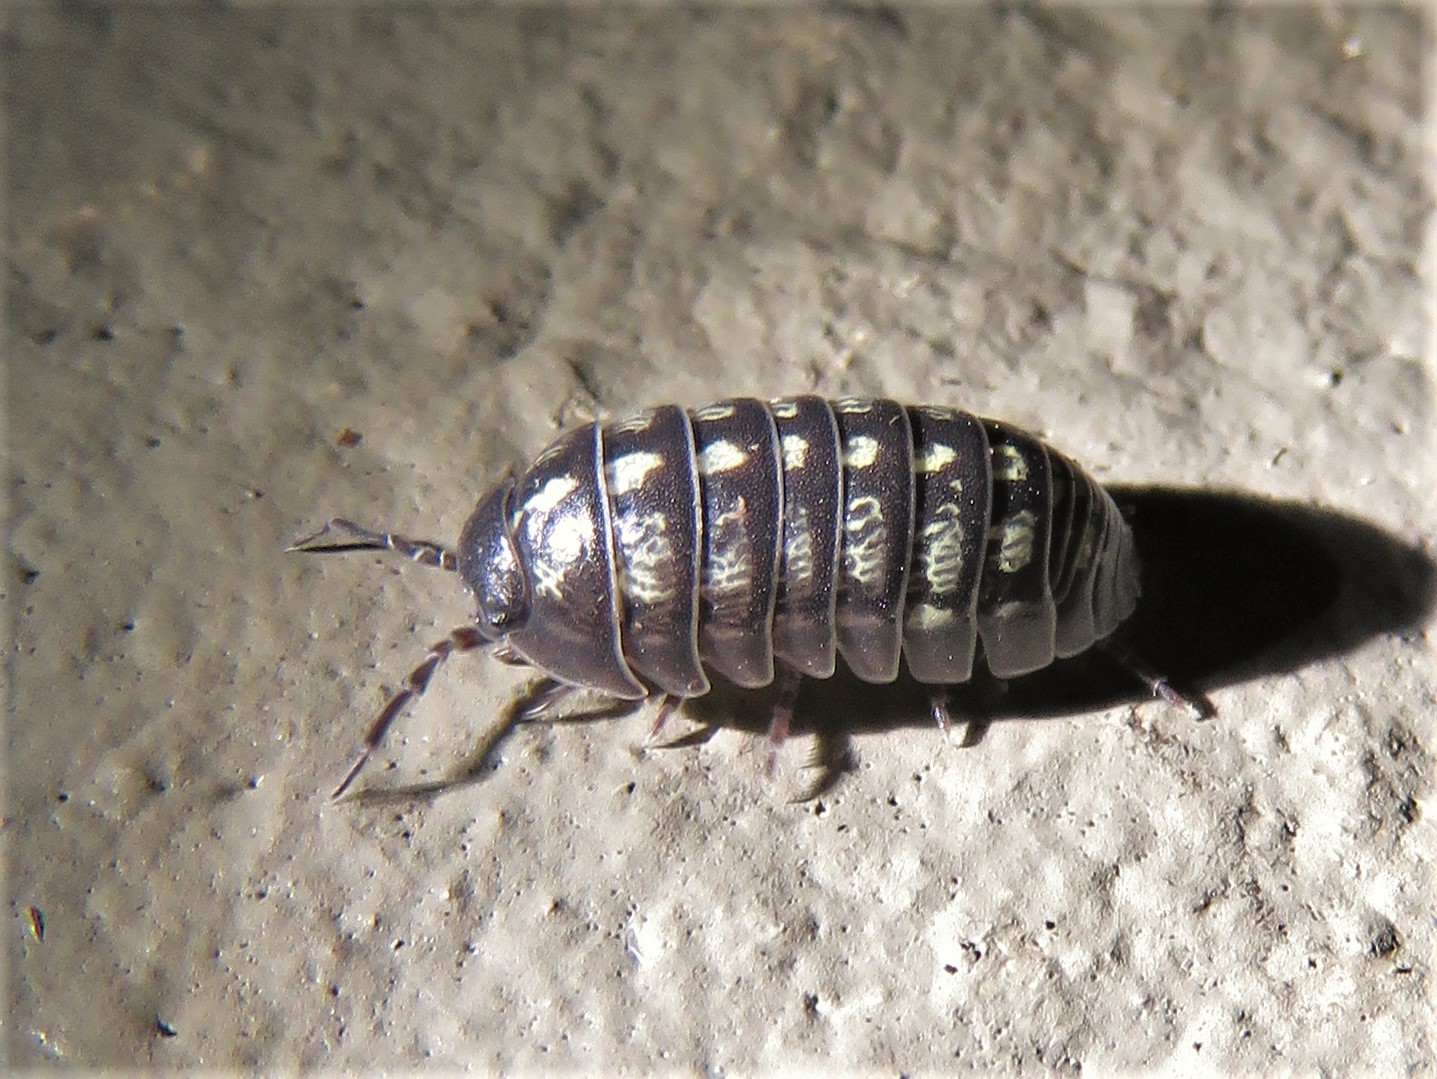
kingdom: Animalia
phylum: Arthropoda
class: Malacostraca
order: Isopoda
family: Armadillidiidae
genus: Armadillidium
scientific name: Armadillidium vulgare
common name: Common pill woodlouse
